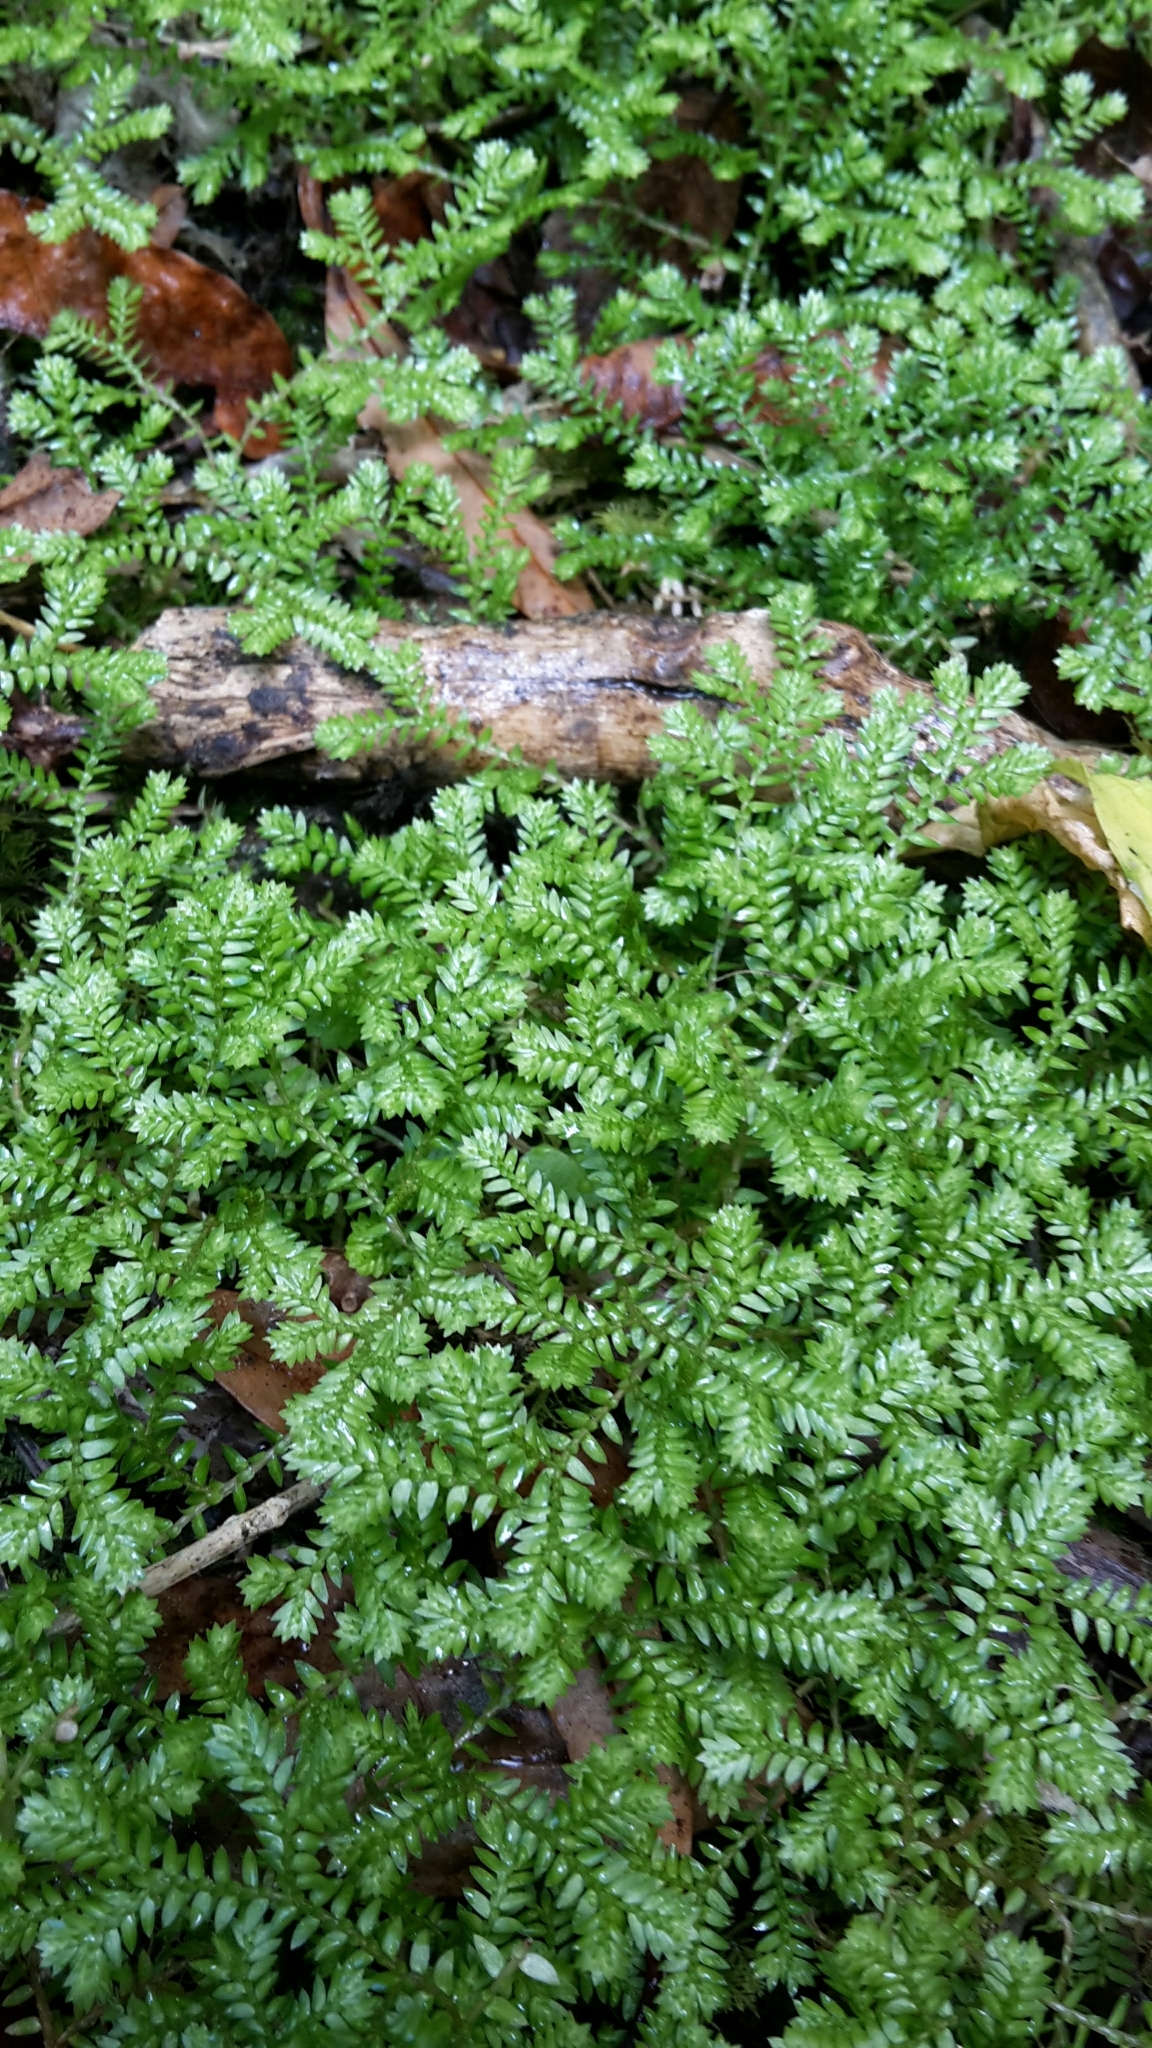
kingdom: Plantae
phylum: Tracheophyta
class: Lycopodiopsida
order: Selaginellales
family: Selaginellaceae
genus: Selaginella
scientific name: Selaginella kraussiana
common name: Krauss' spikemoss
